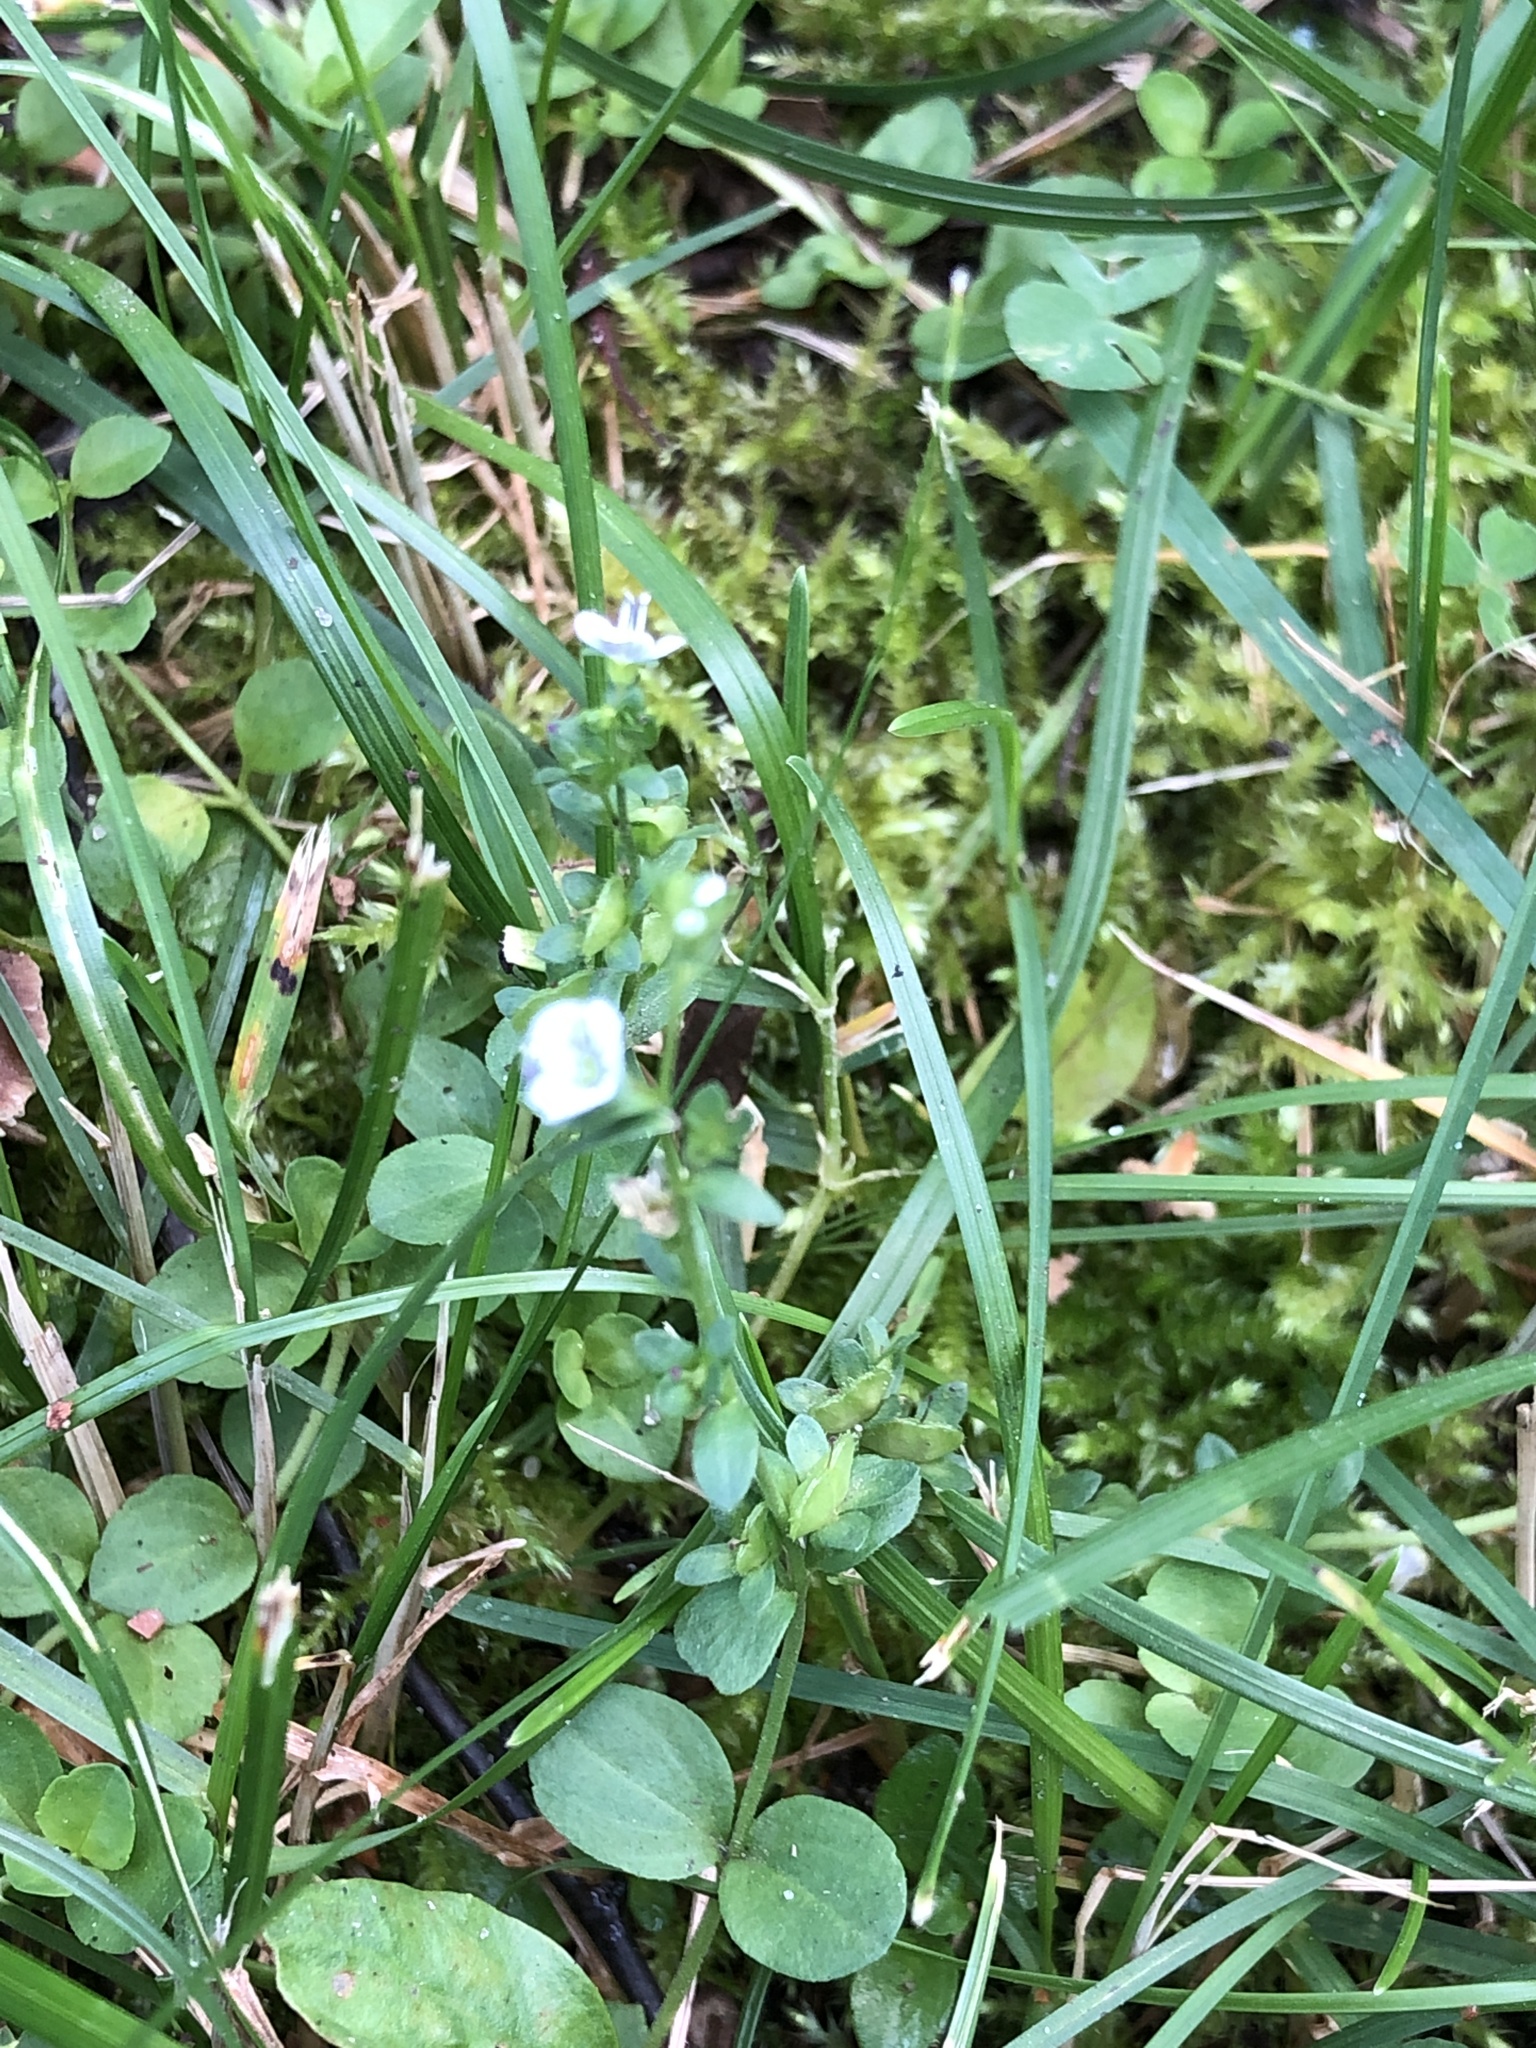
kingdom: Plantae
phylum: Tracheophyta
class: Magnoliopsida
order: Lamiales
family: Plantaginaceae
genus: Veronica
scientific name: Veronica serpyllifolia
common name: Thyme-leaved speedwell
